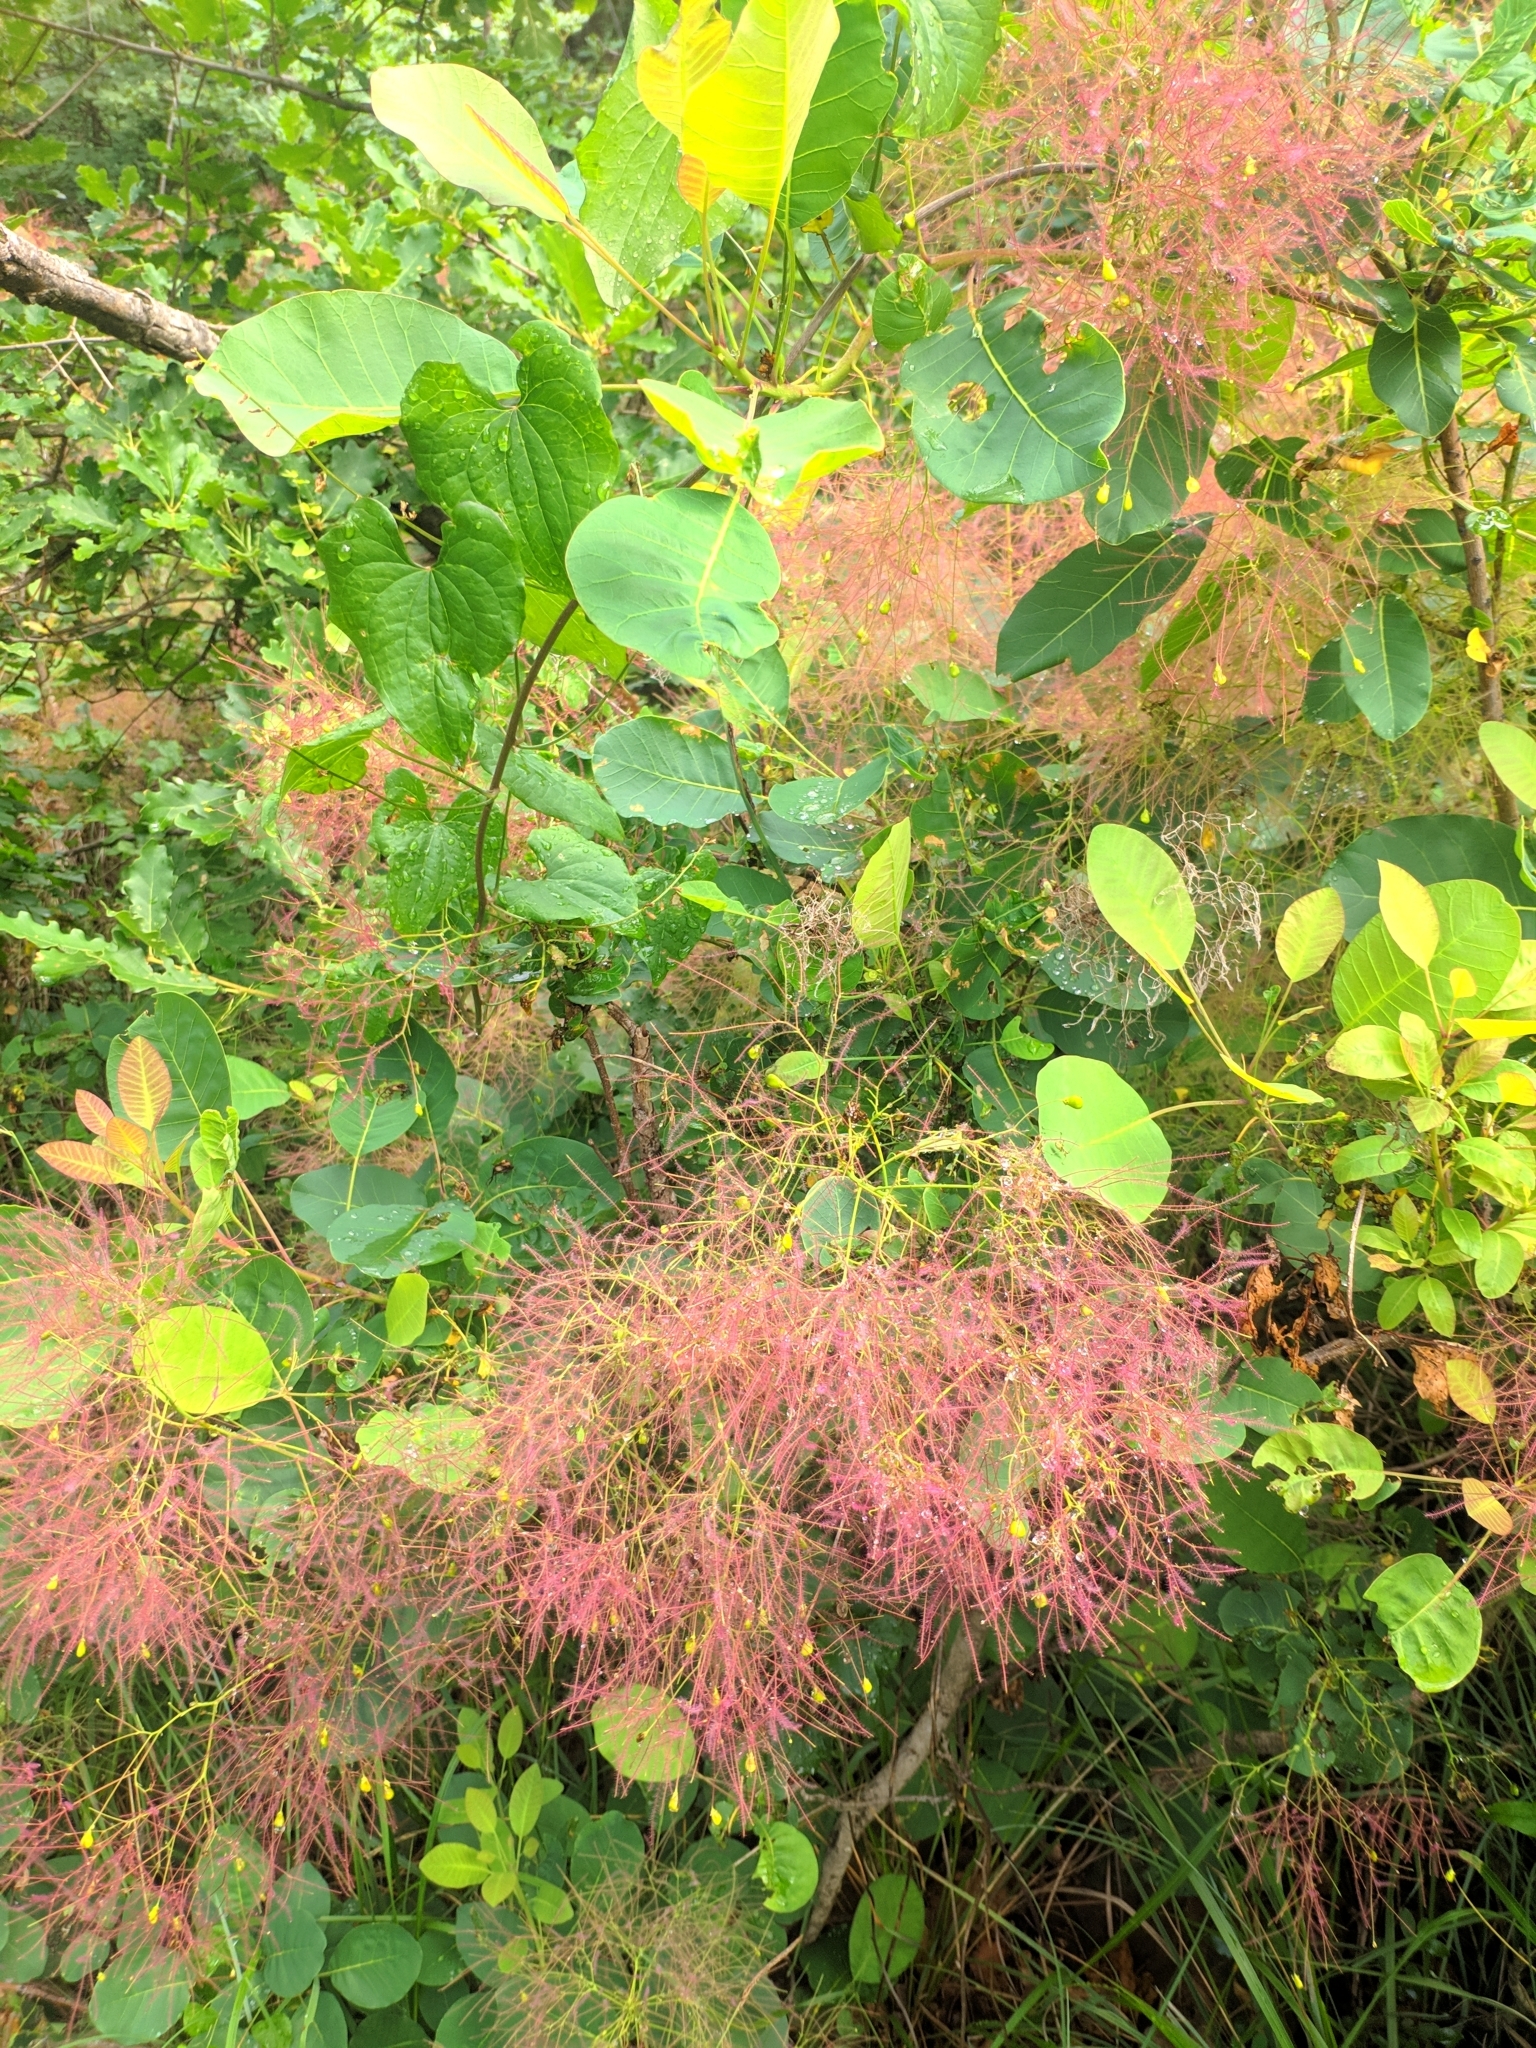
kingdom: Plantae
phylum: Tracheophyta
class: Magnoliopsida
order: Sapindales
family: Anacardiaceae
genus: Cotinus
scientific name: Cotinus coggygria
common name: Smoke-tree
